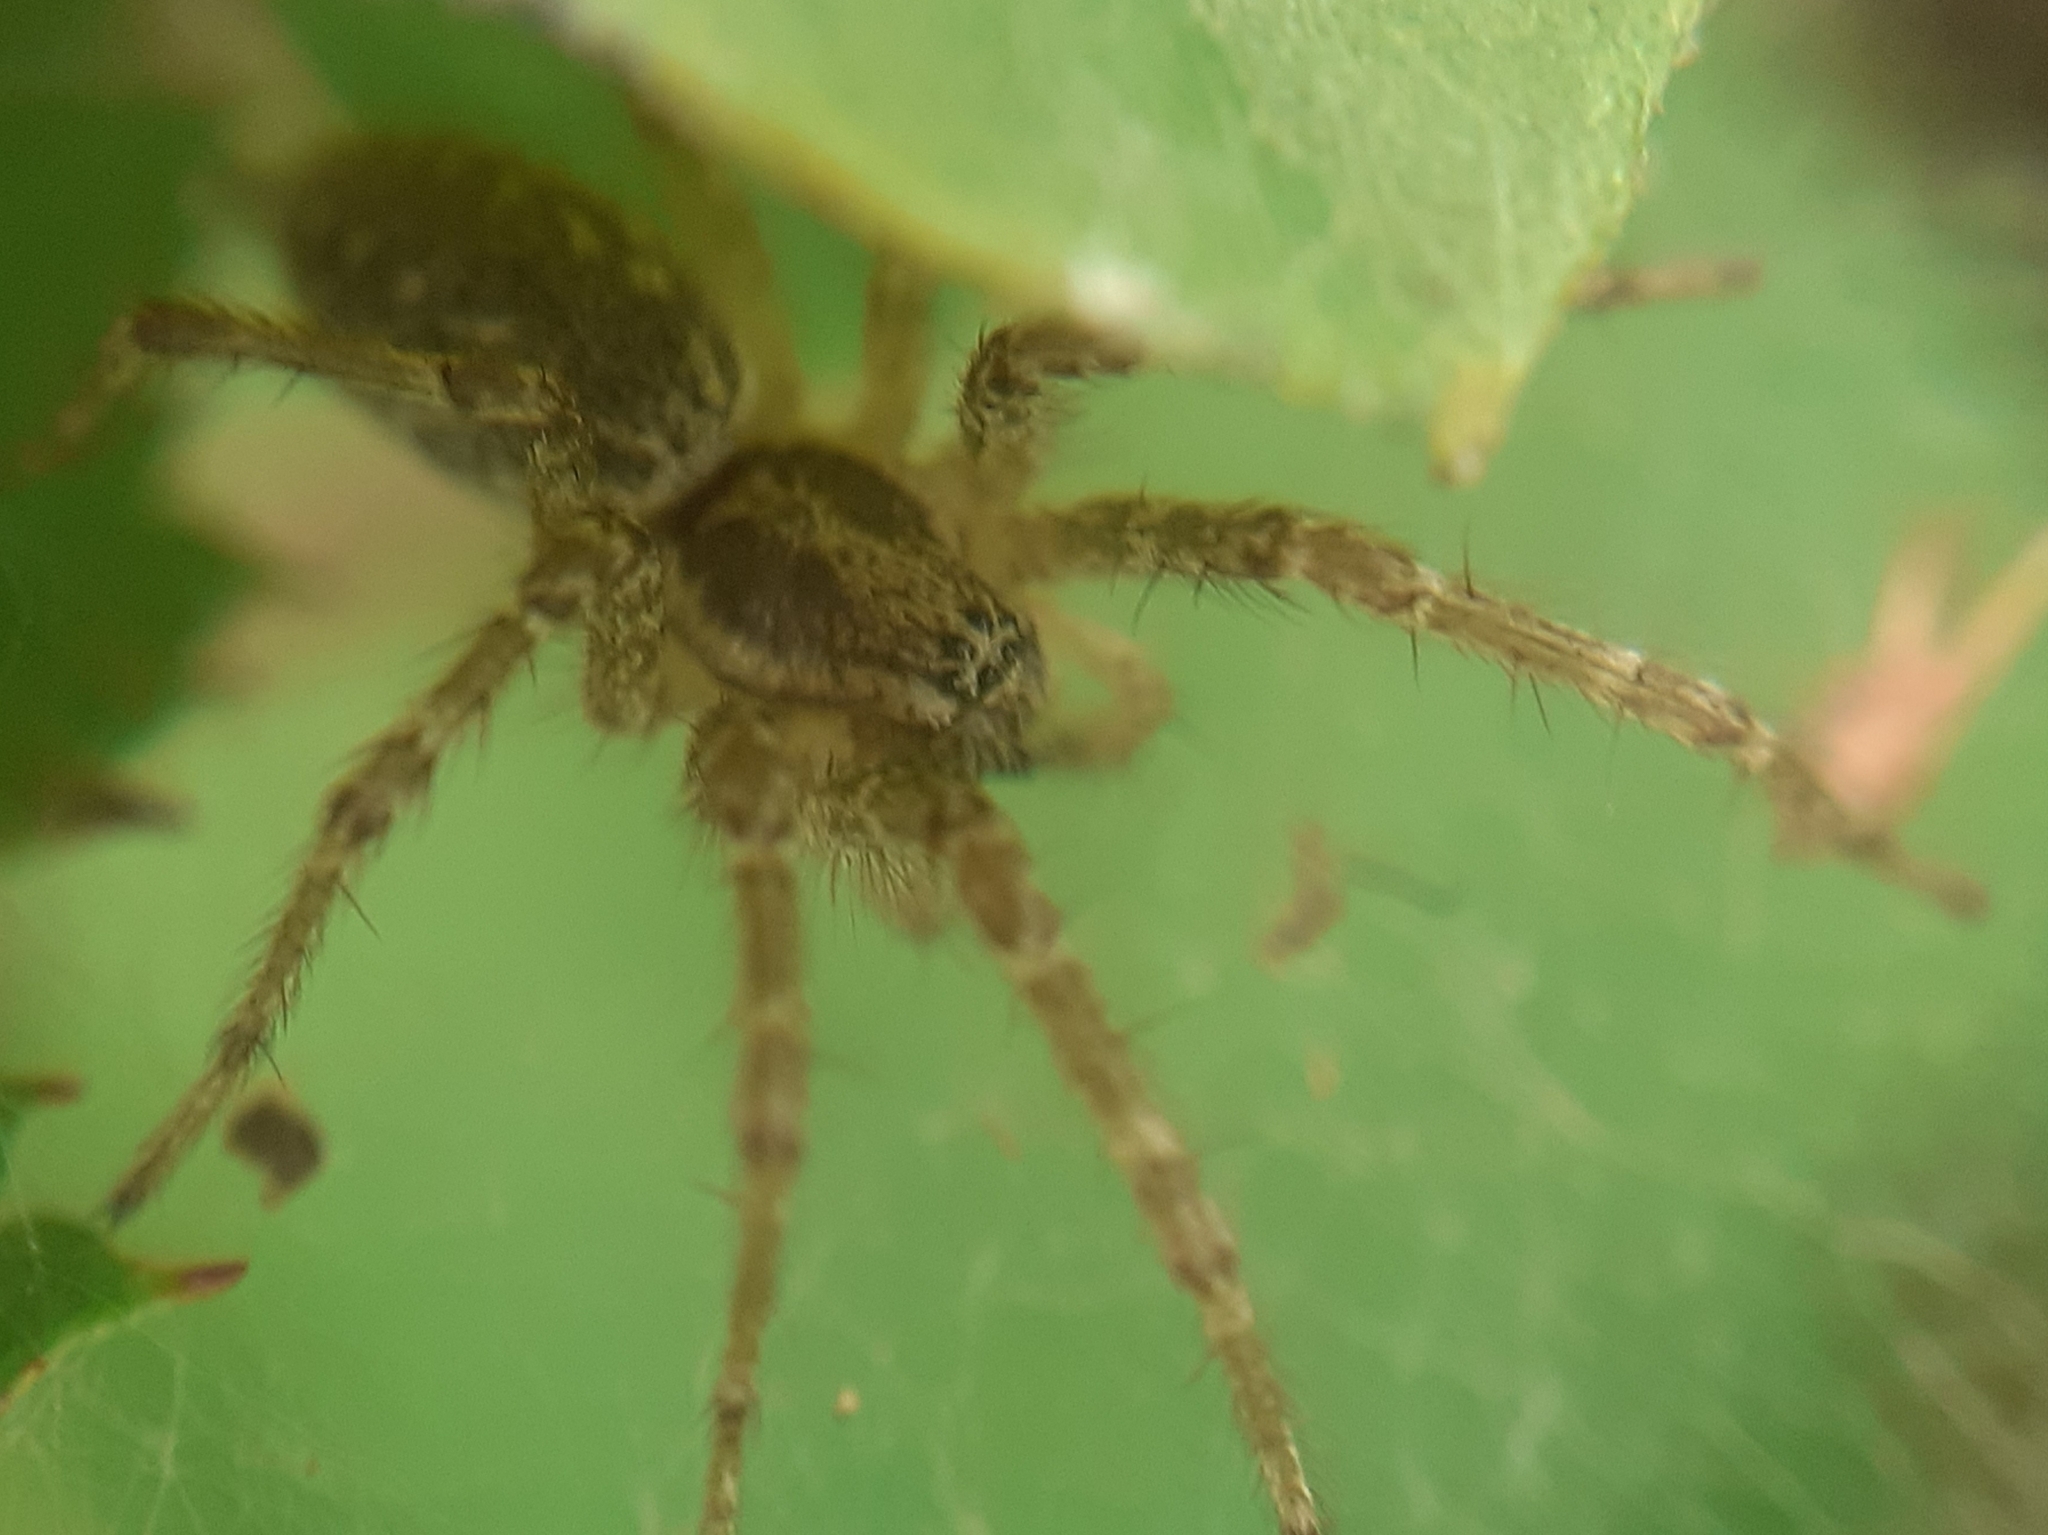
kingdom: Animalia
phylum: Arthropoda
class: Arachnida
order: Araneae
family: Agelenidae
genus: Allagelena
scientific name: Allagelena gracilens
